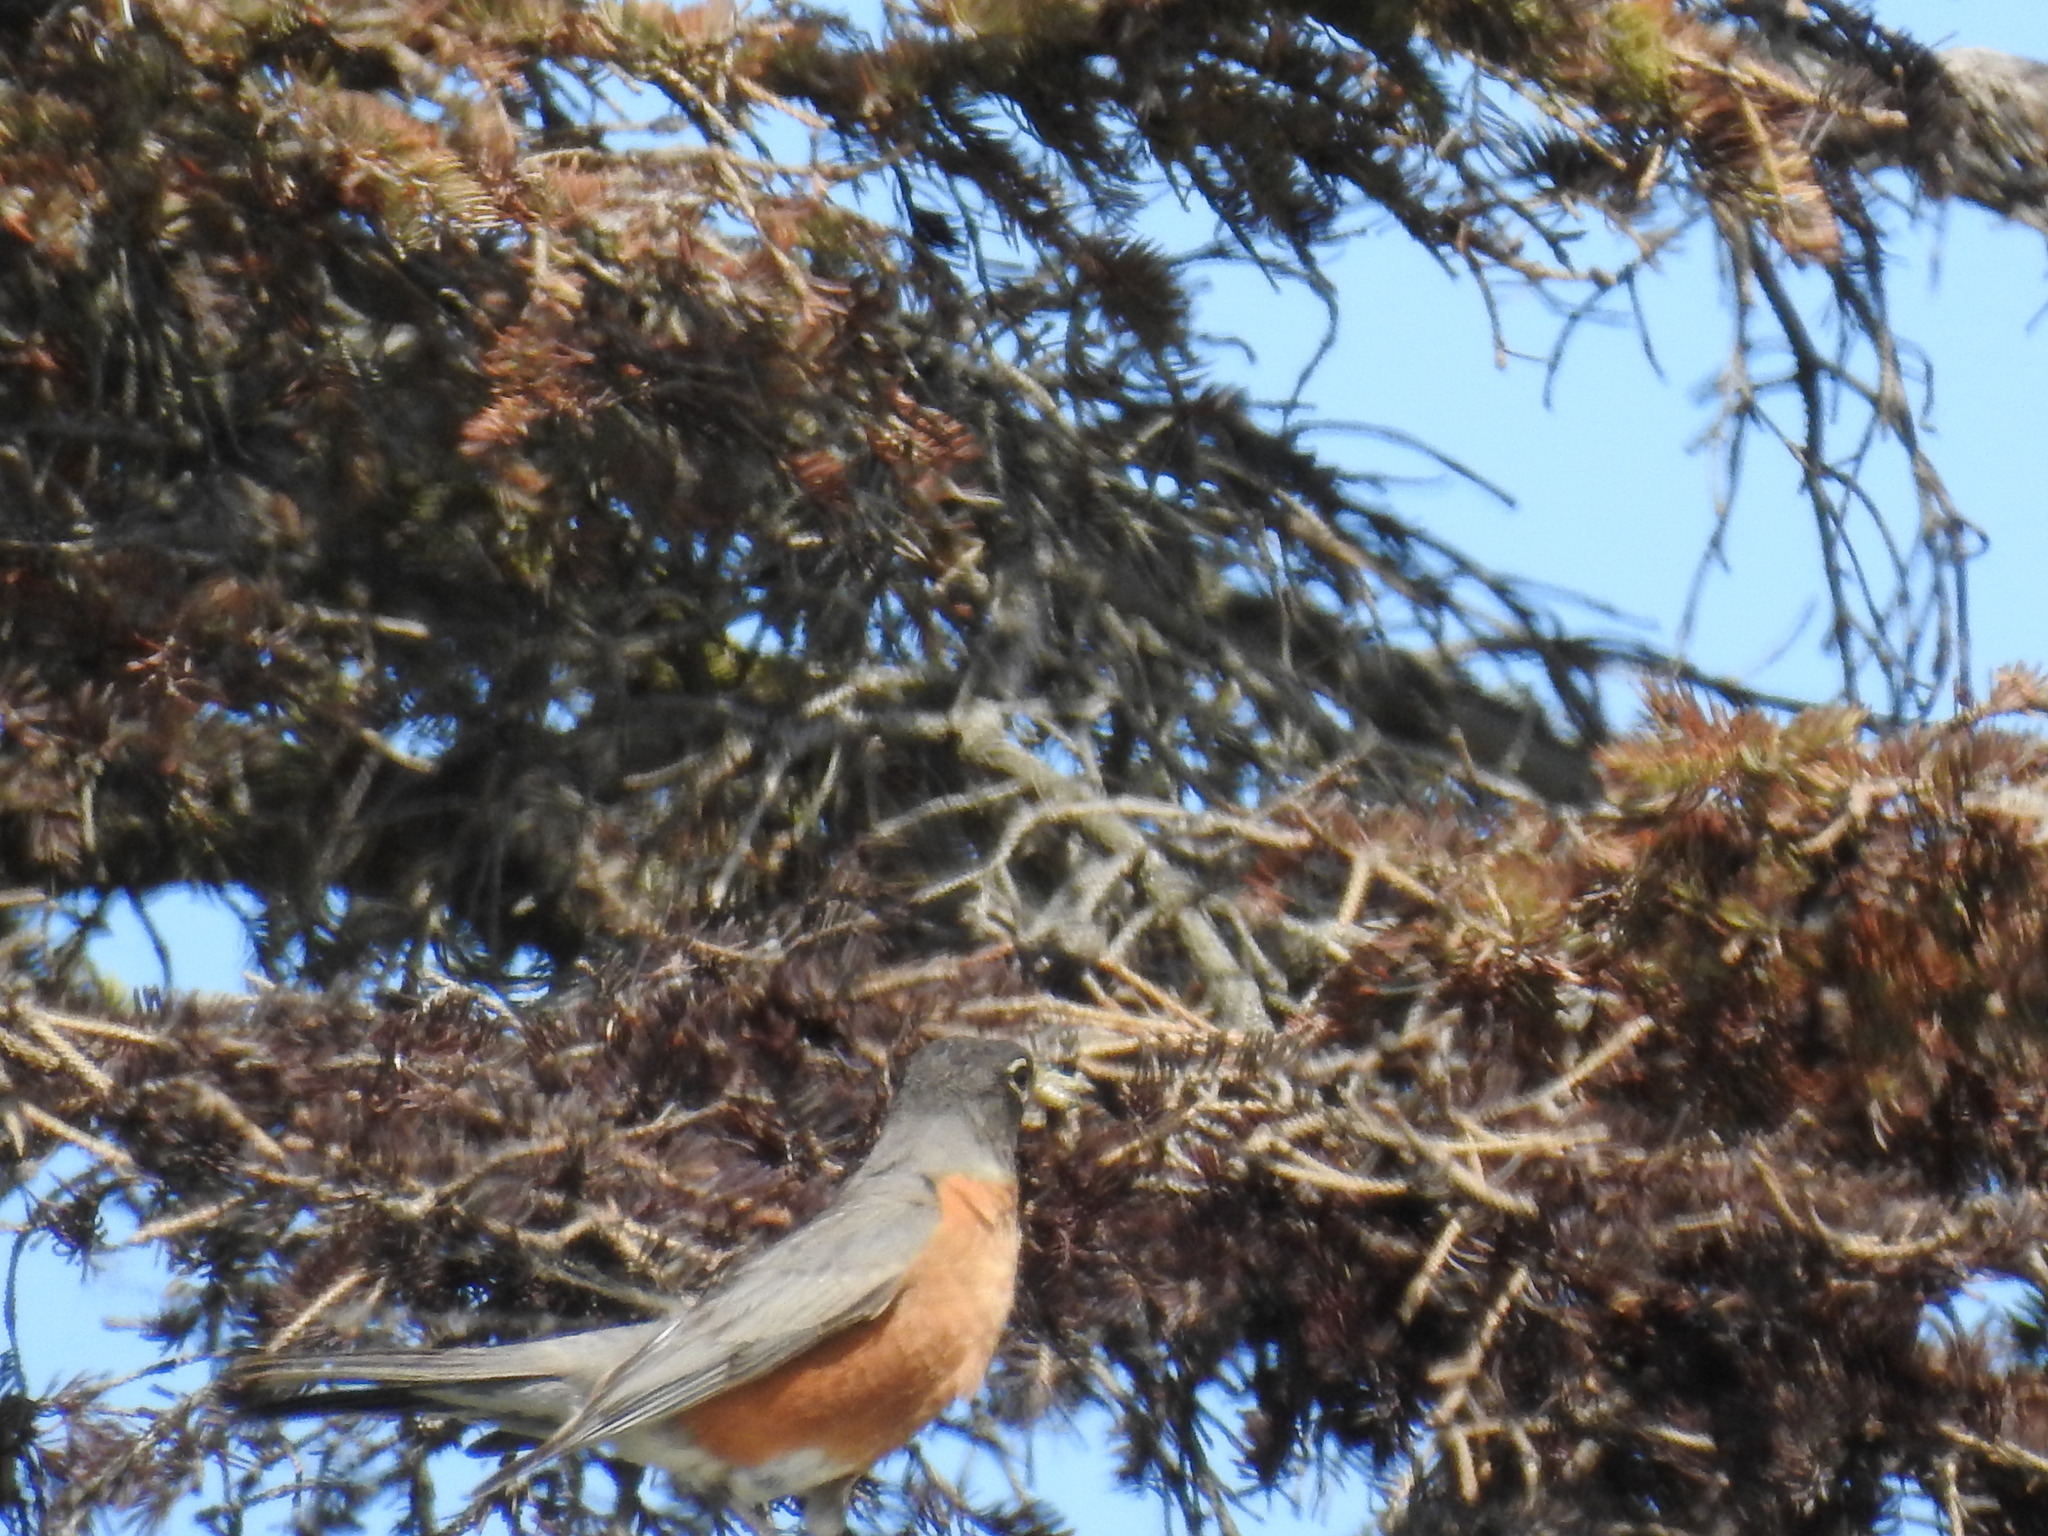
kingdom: Animalia
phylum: Chordata
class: Aves
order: Passeriformes
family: Turdidae
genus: Turdus
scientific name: Turdus migratorius
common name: American robin
